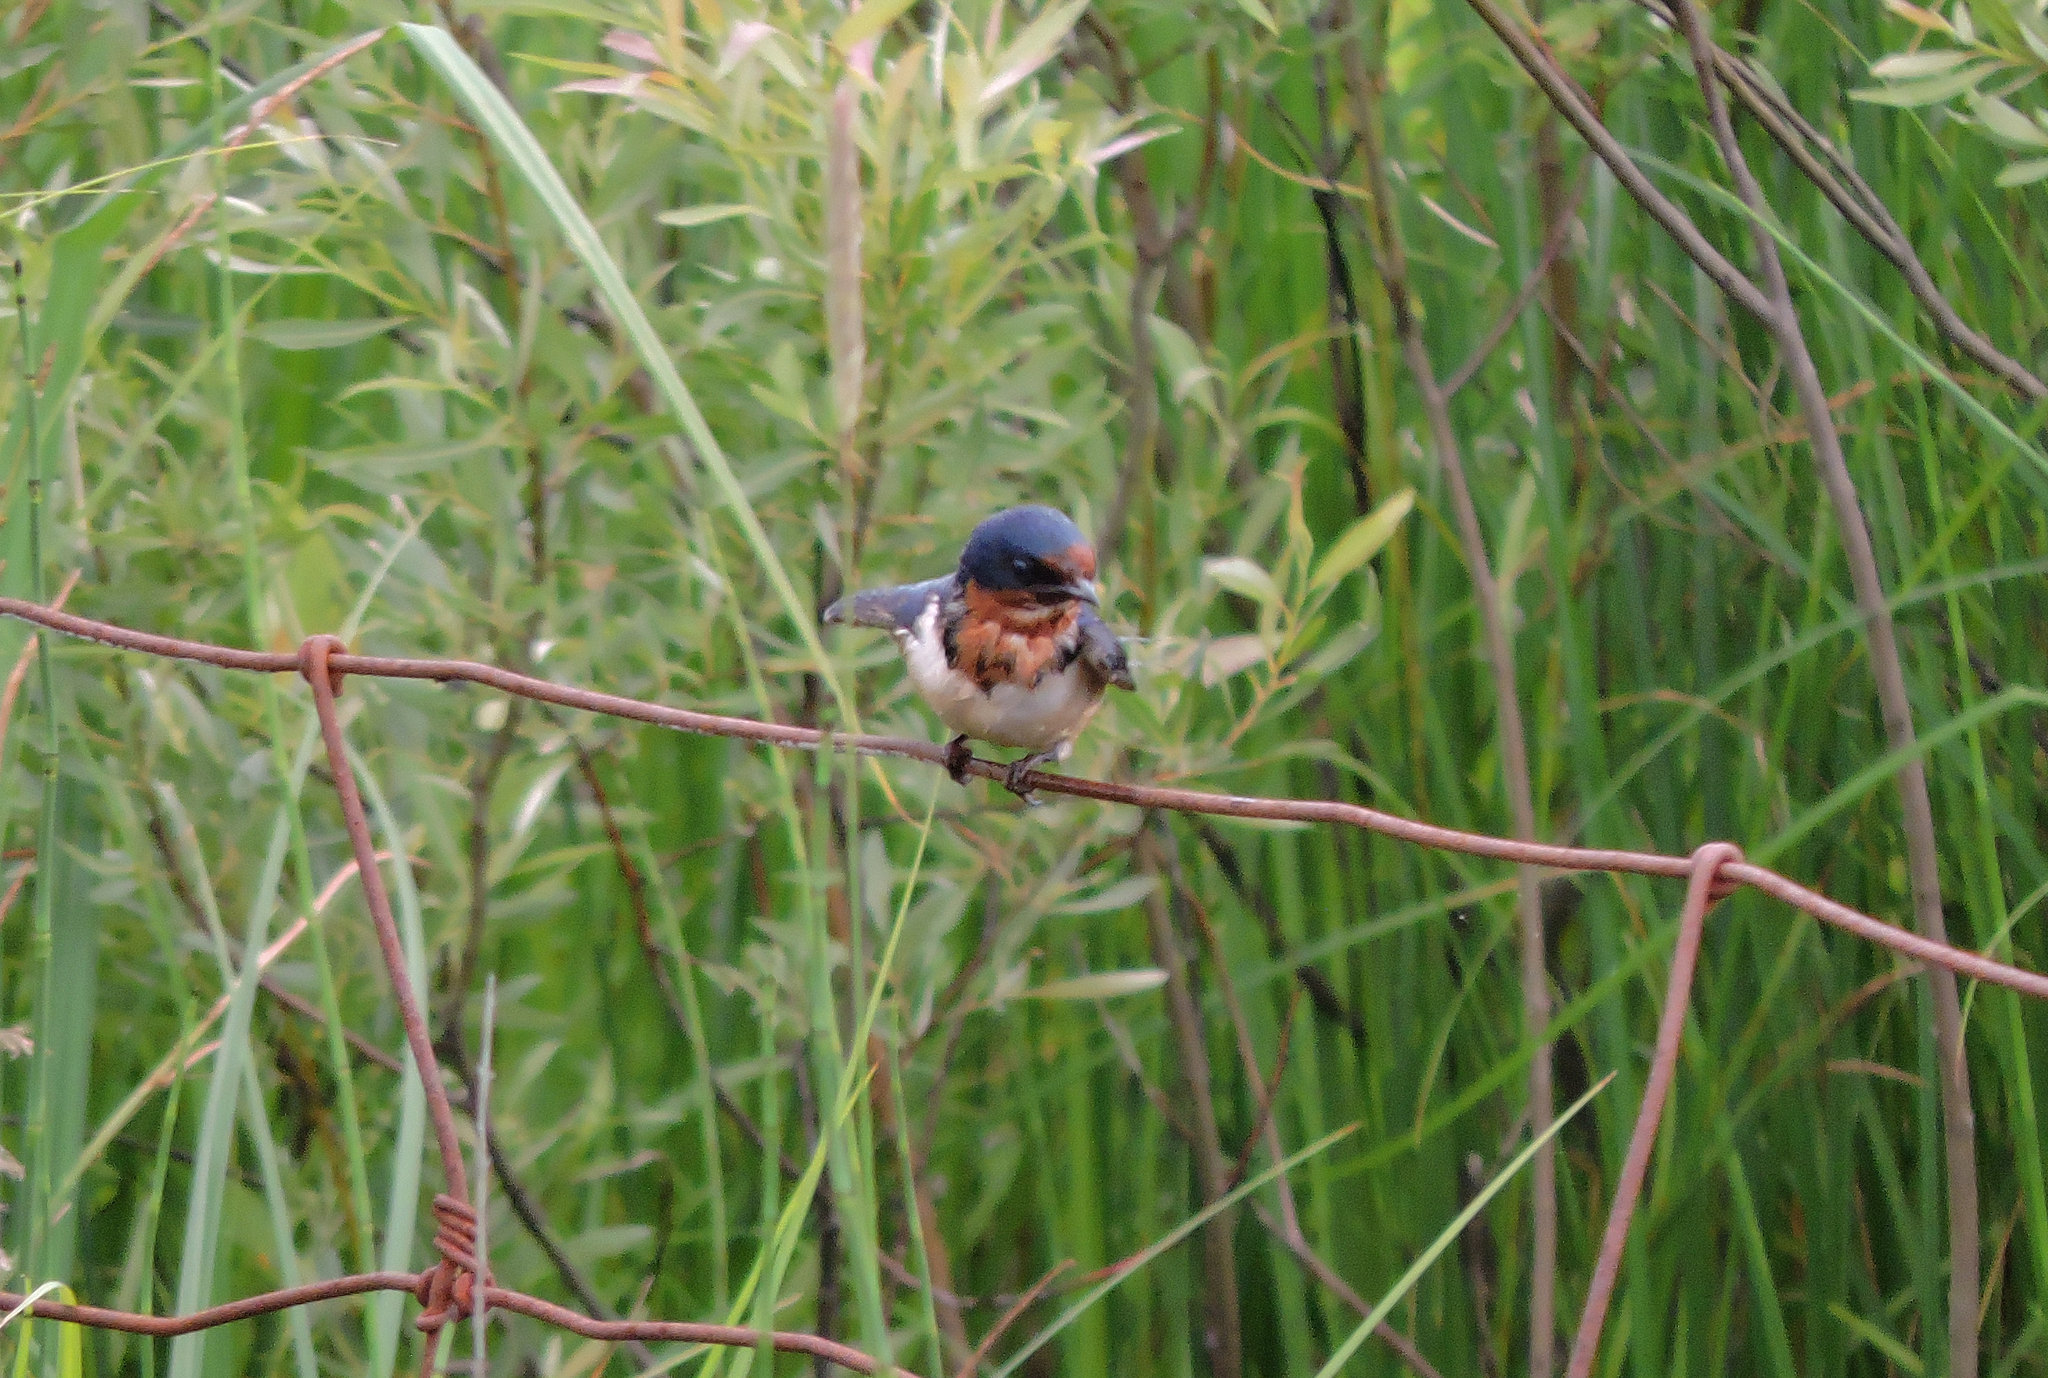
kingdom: Animalia
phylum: Chordata
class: Aves
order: Passeriformes
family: Hirundinidae
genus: Hirundo
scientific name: Hirundo rustica
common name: Barn swallow
